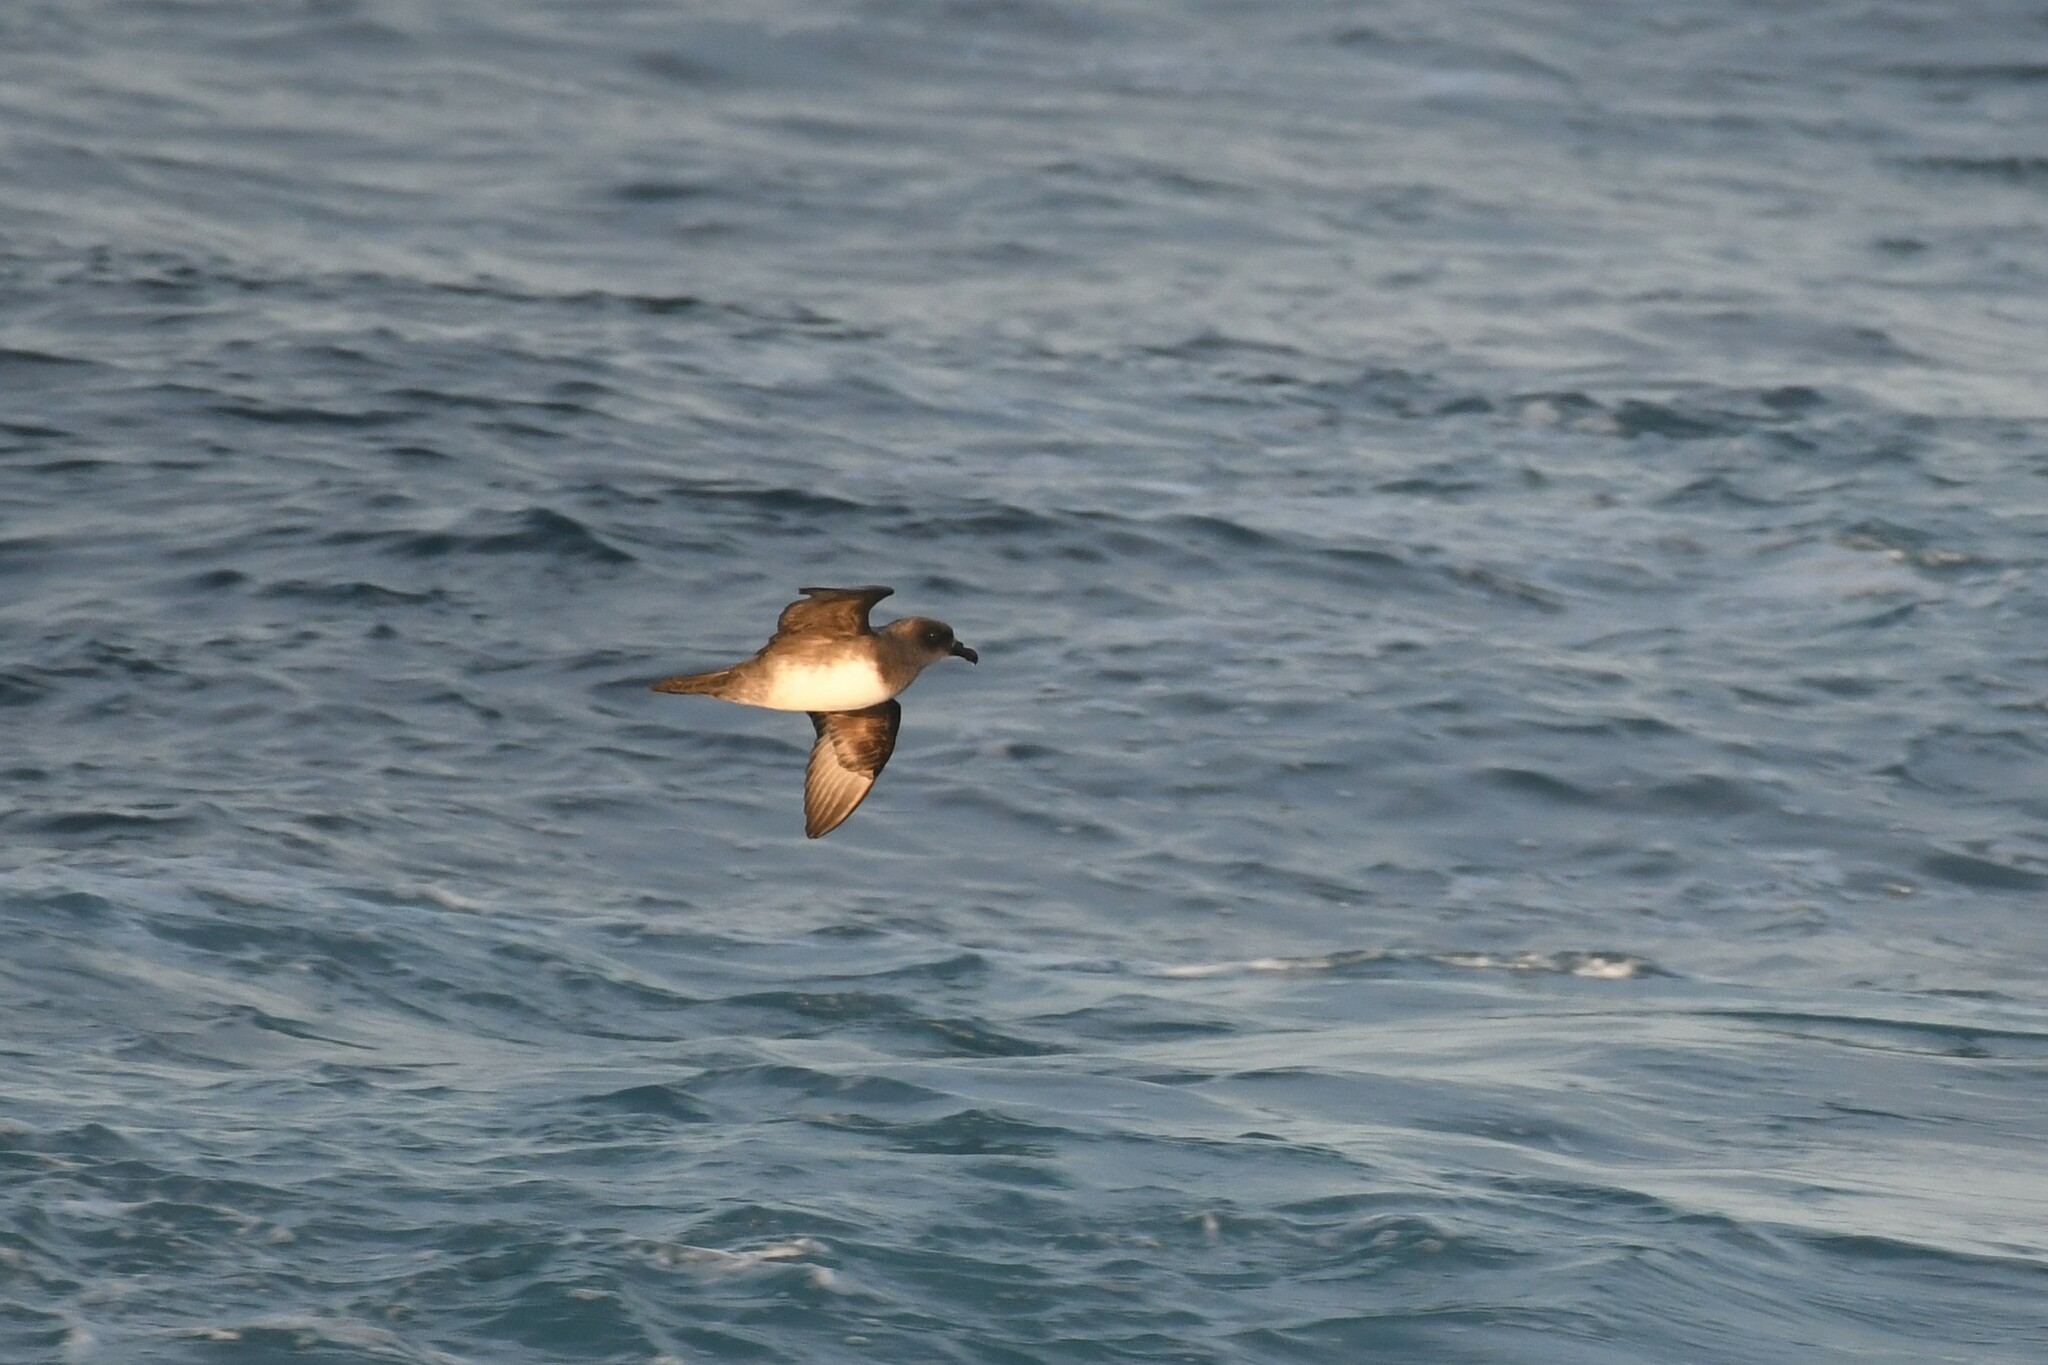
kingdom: Animalia
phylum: Chordata
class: Aves
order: Procellariiformes
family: Procellariidae
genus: Pterodroma
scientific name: Pterodroma incerta
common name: Atlantic petrel
